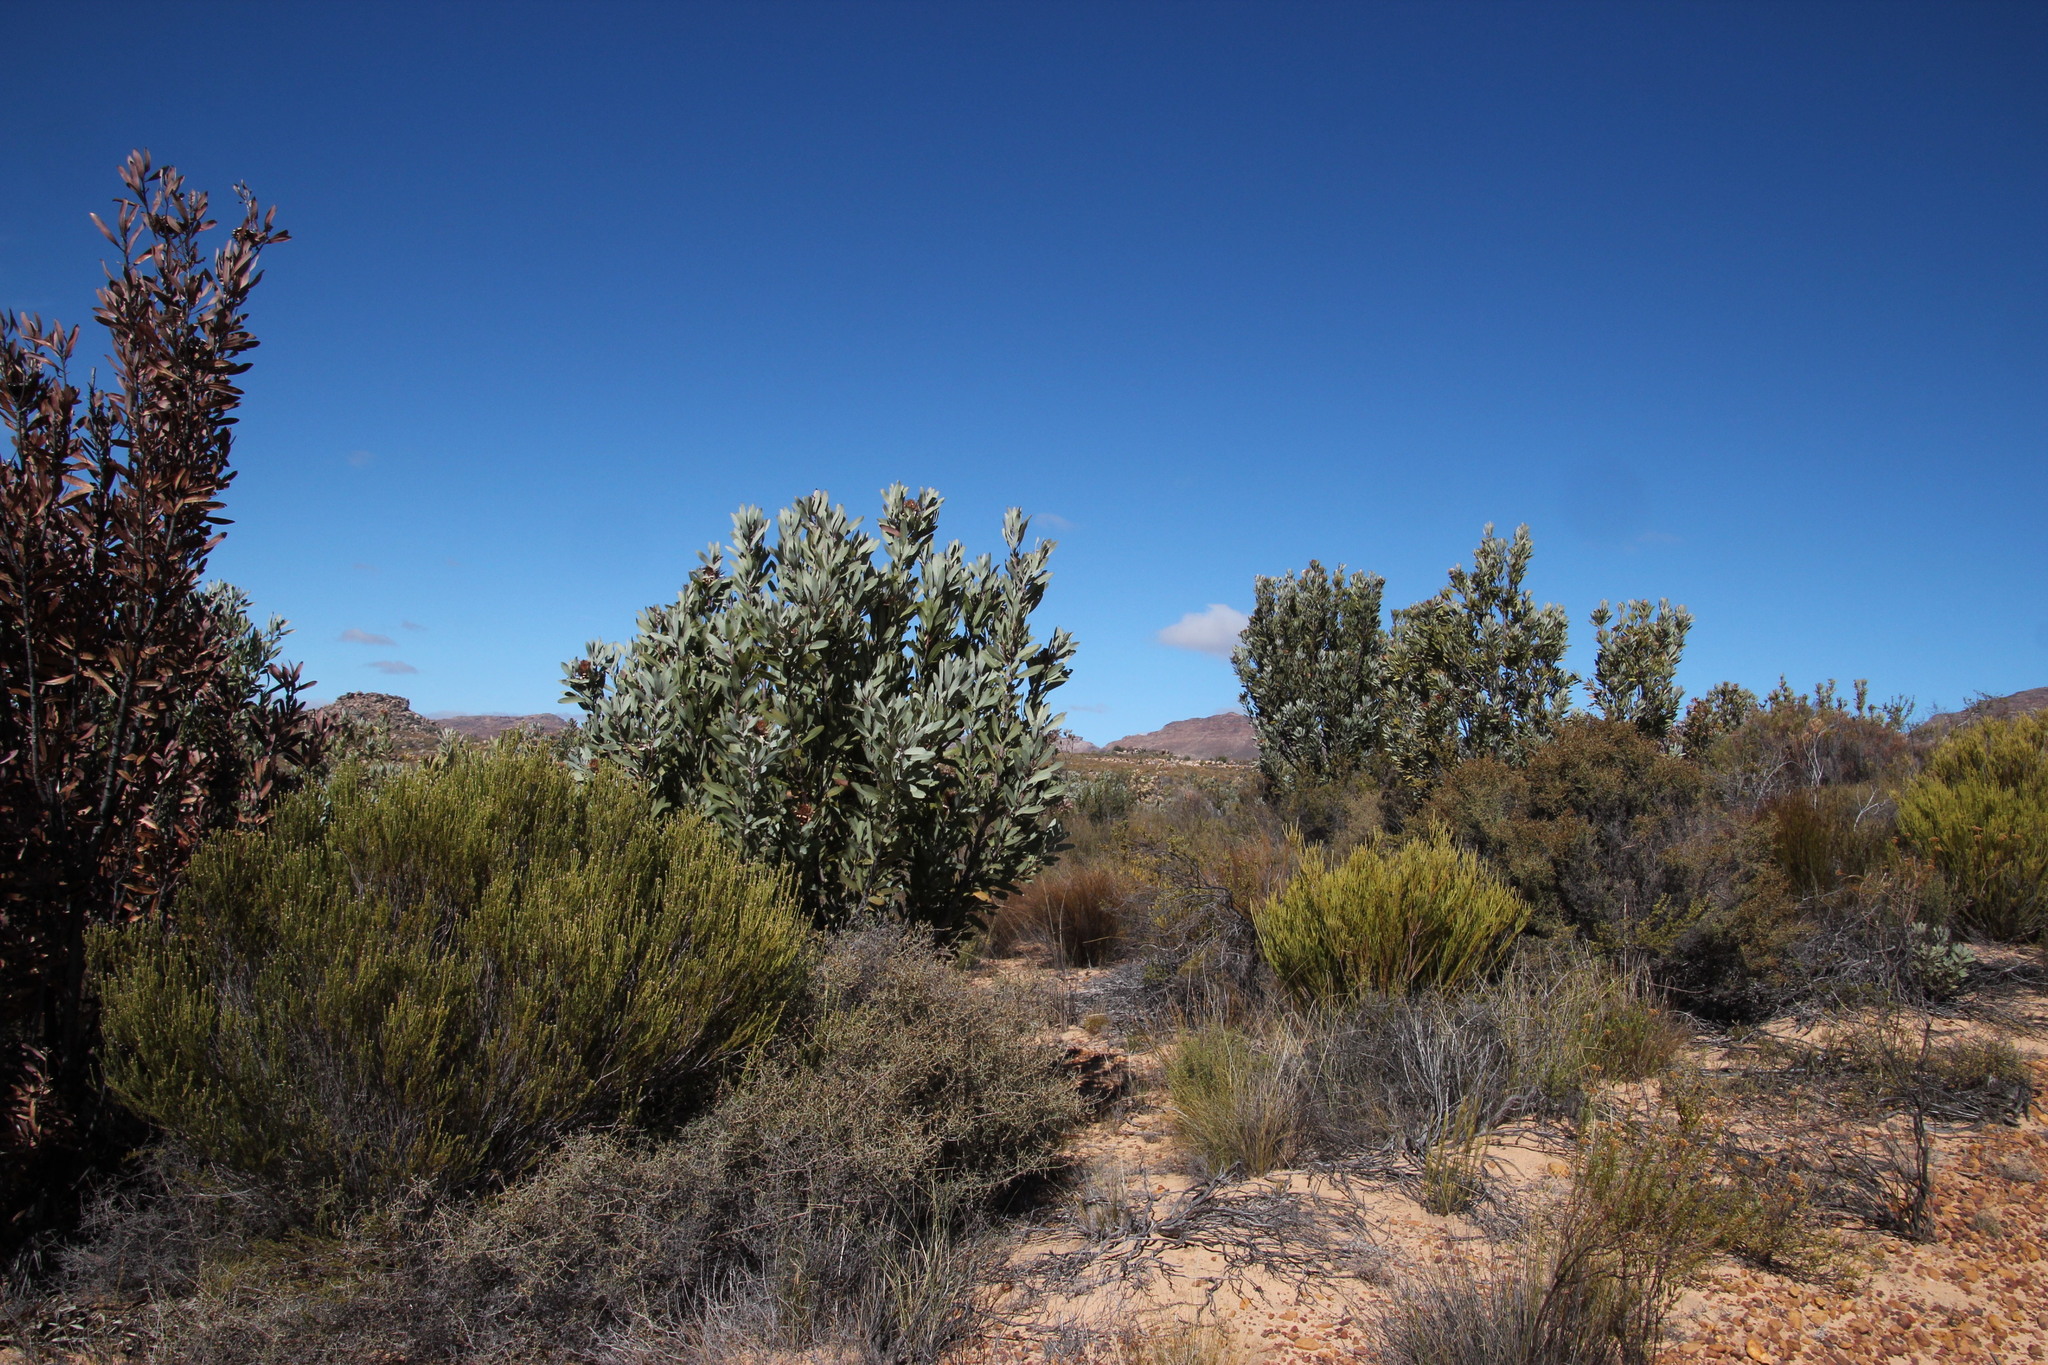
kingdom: Plantae
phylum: Tracheophyta
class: Magnoliopsida
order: Proteales
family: Proteaceae
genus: Protea
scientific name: Protea laurifolia
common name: Grey-leaf sugarbsh
